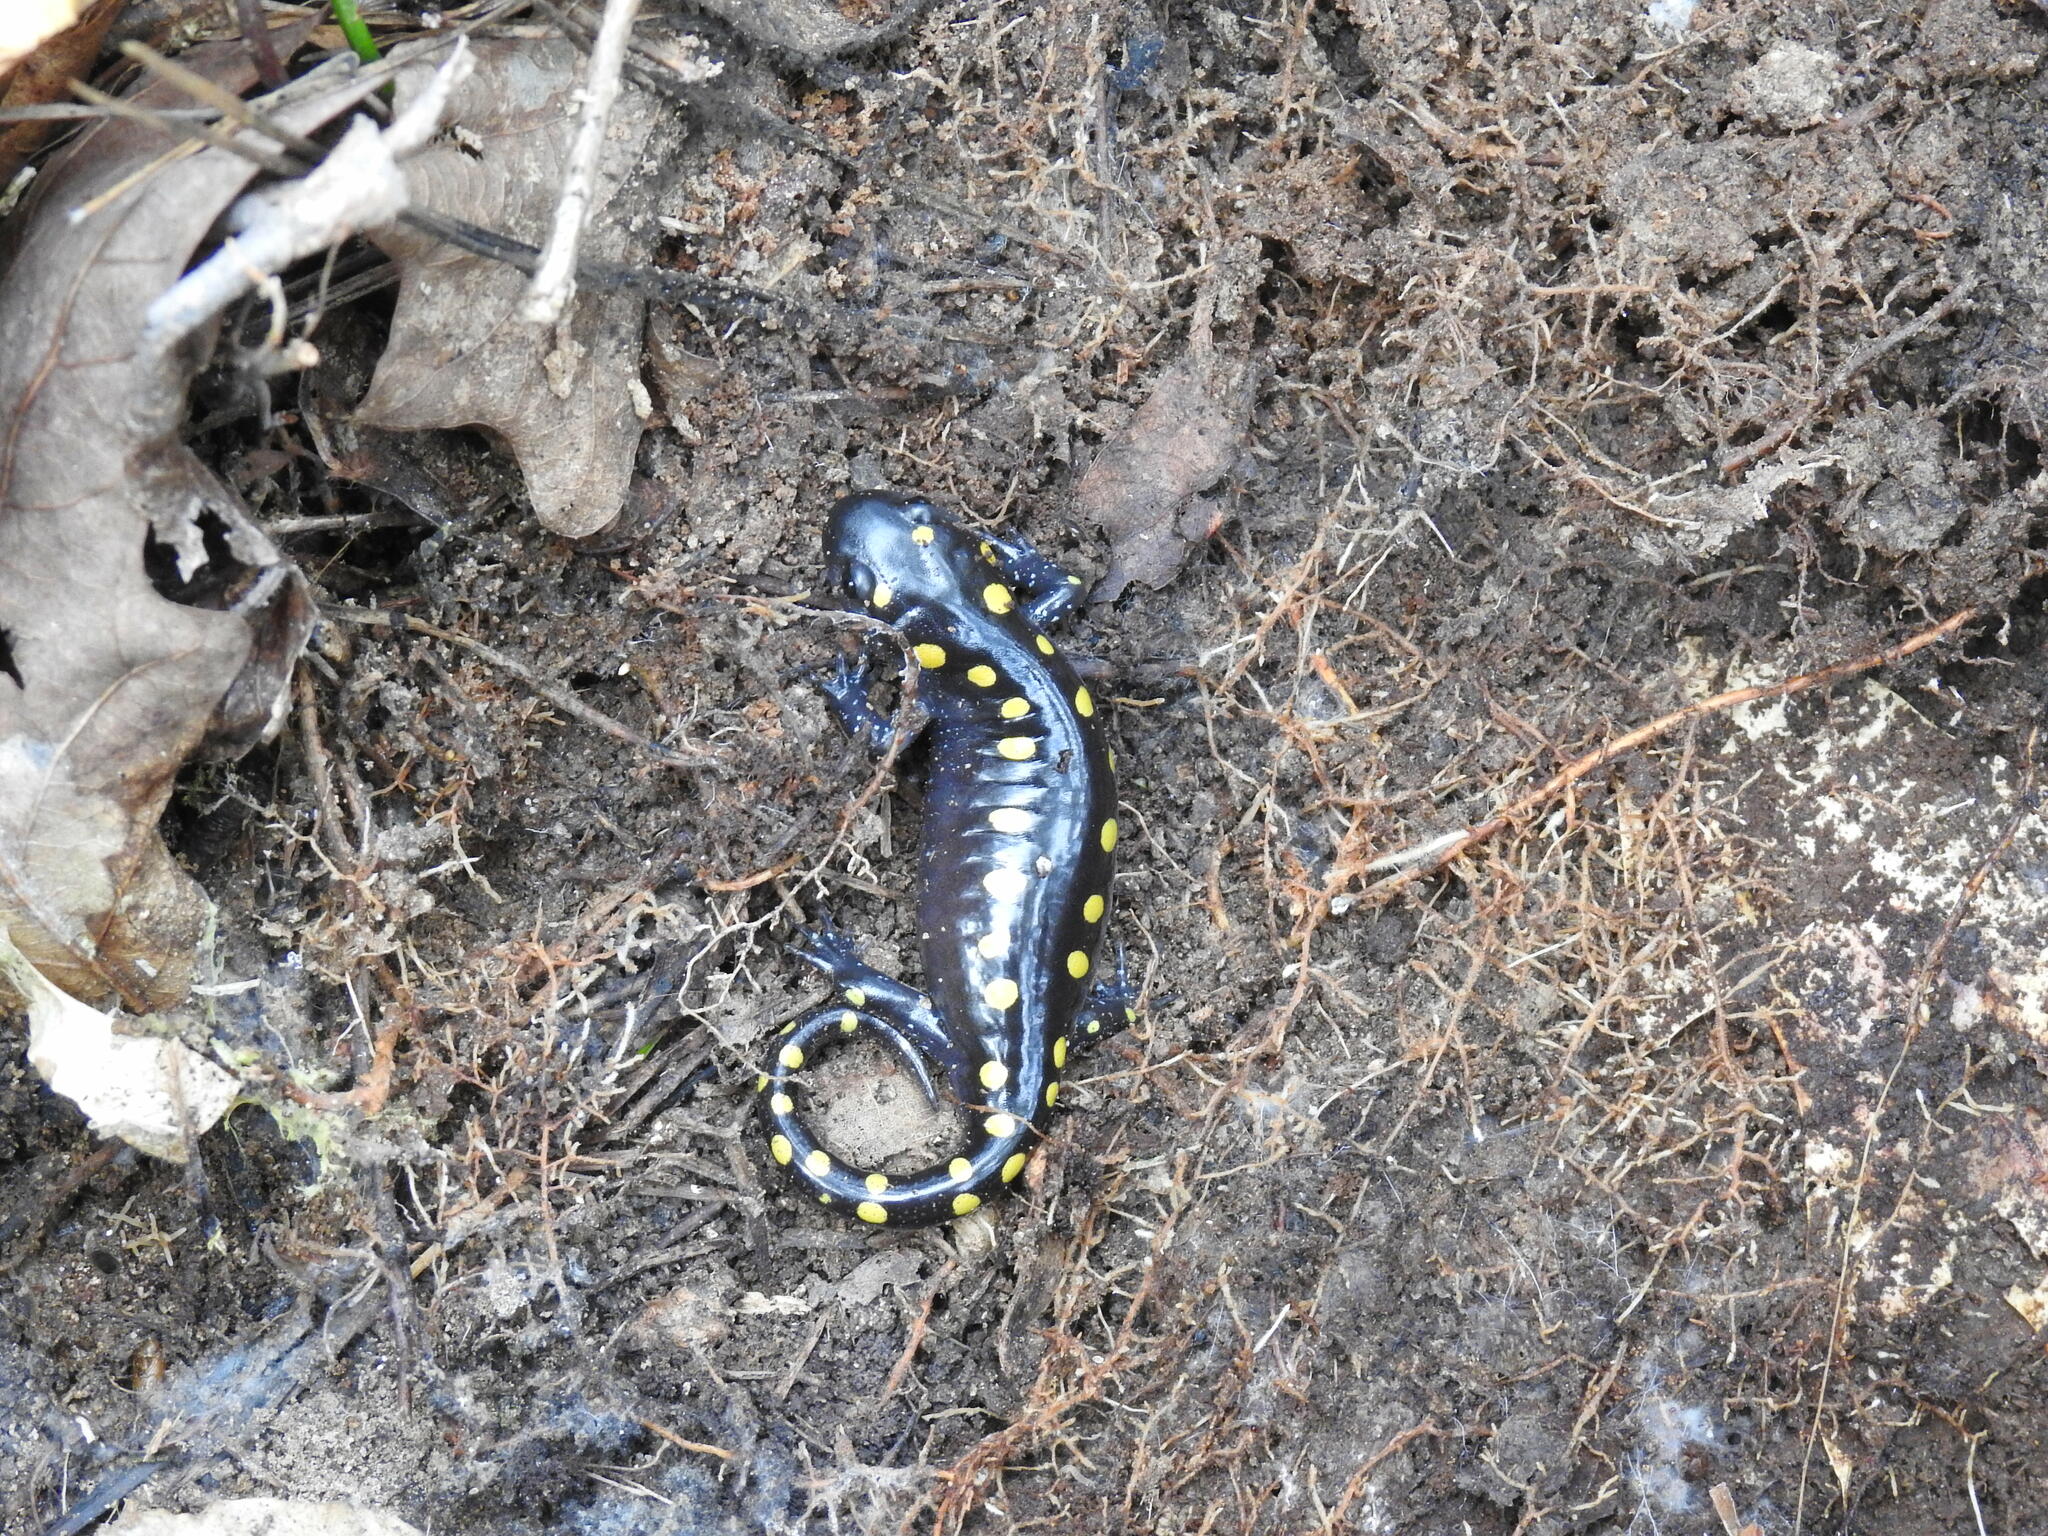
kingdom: Animalia
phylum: Chordata
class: Amphibia
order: Caudata
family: Ambystomatidae
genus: Ambystoma
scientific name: Ambystoma maculatum
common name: Spotted salamander
